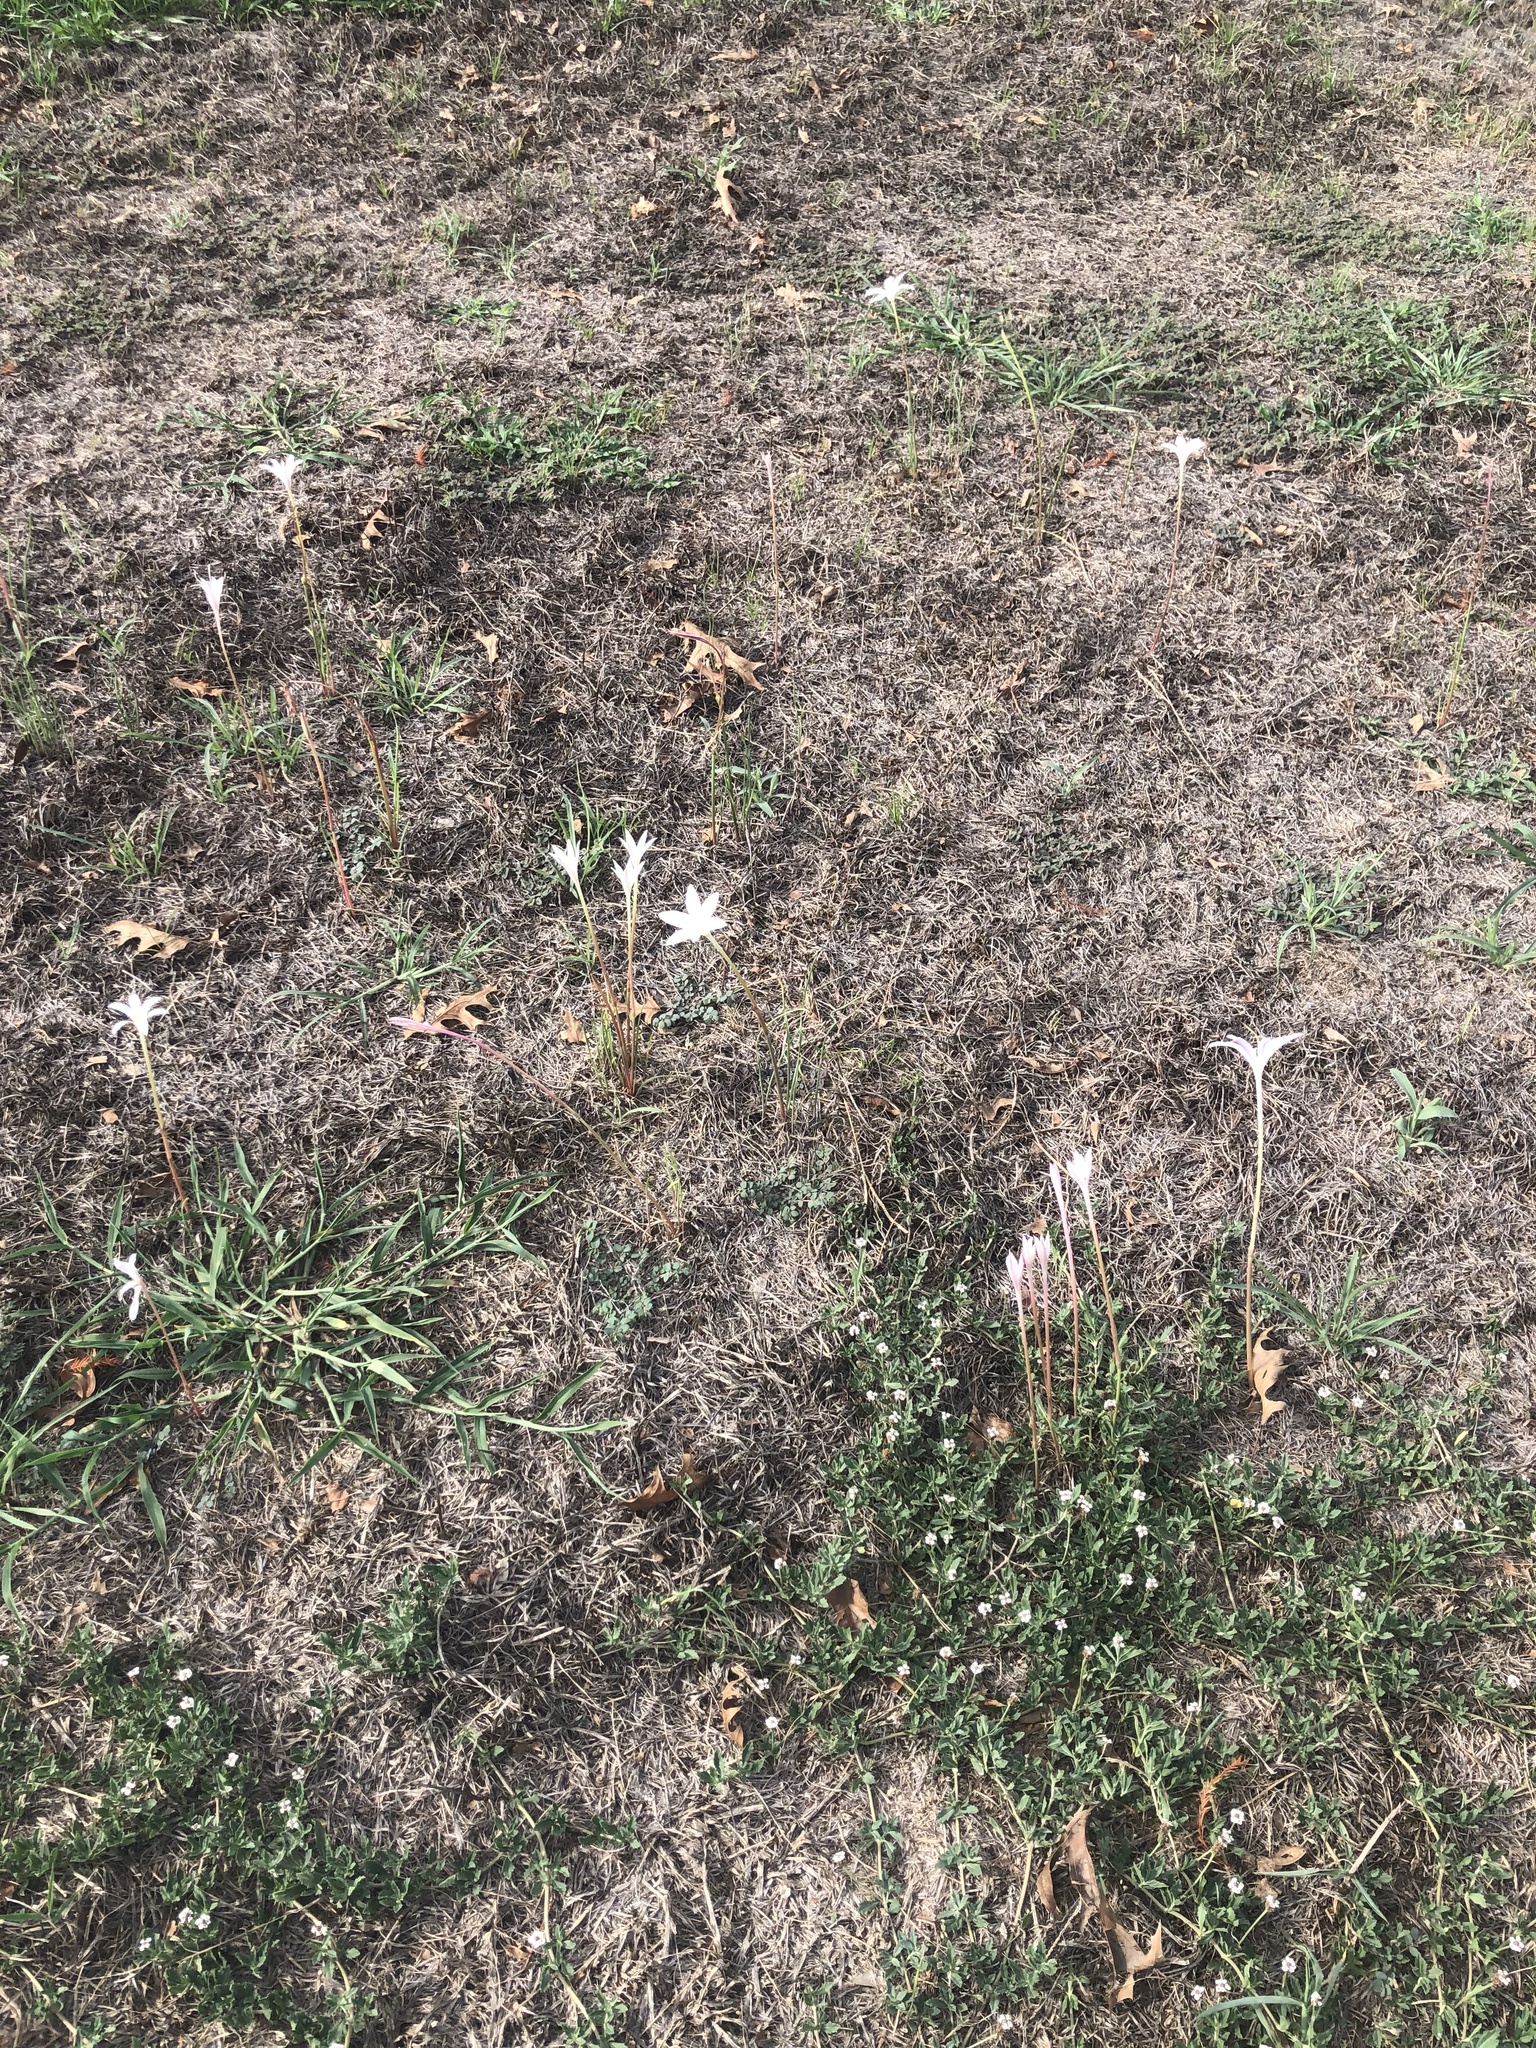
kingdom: Plantae
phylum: Tracheophyta
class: Liliopsida
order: Asparagales
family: Amaryllidaceae
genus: Zephyranthes
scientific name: Zephyranthes traubii
